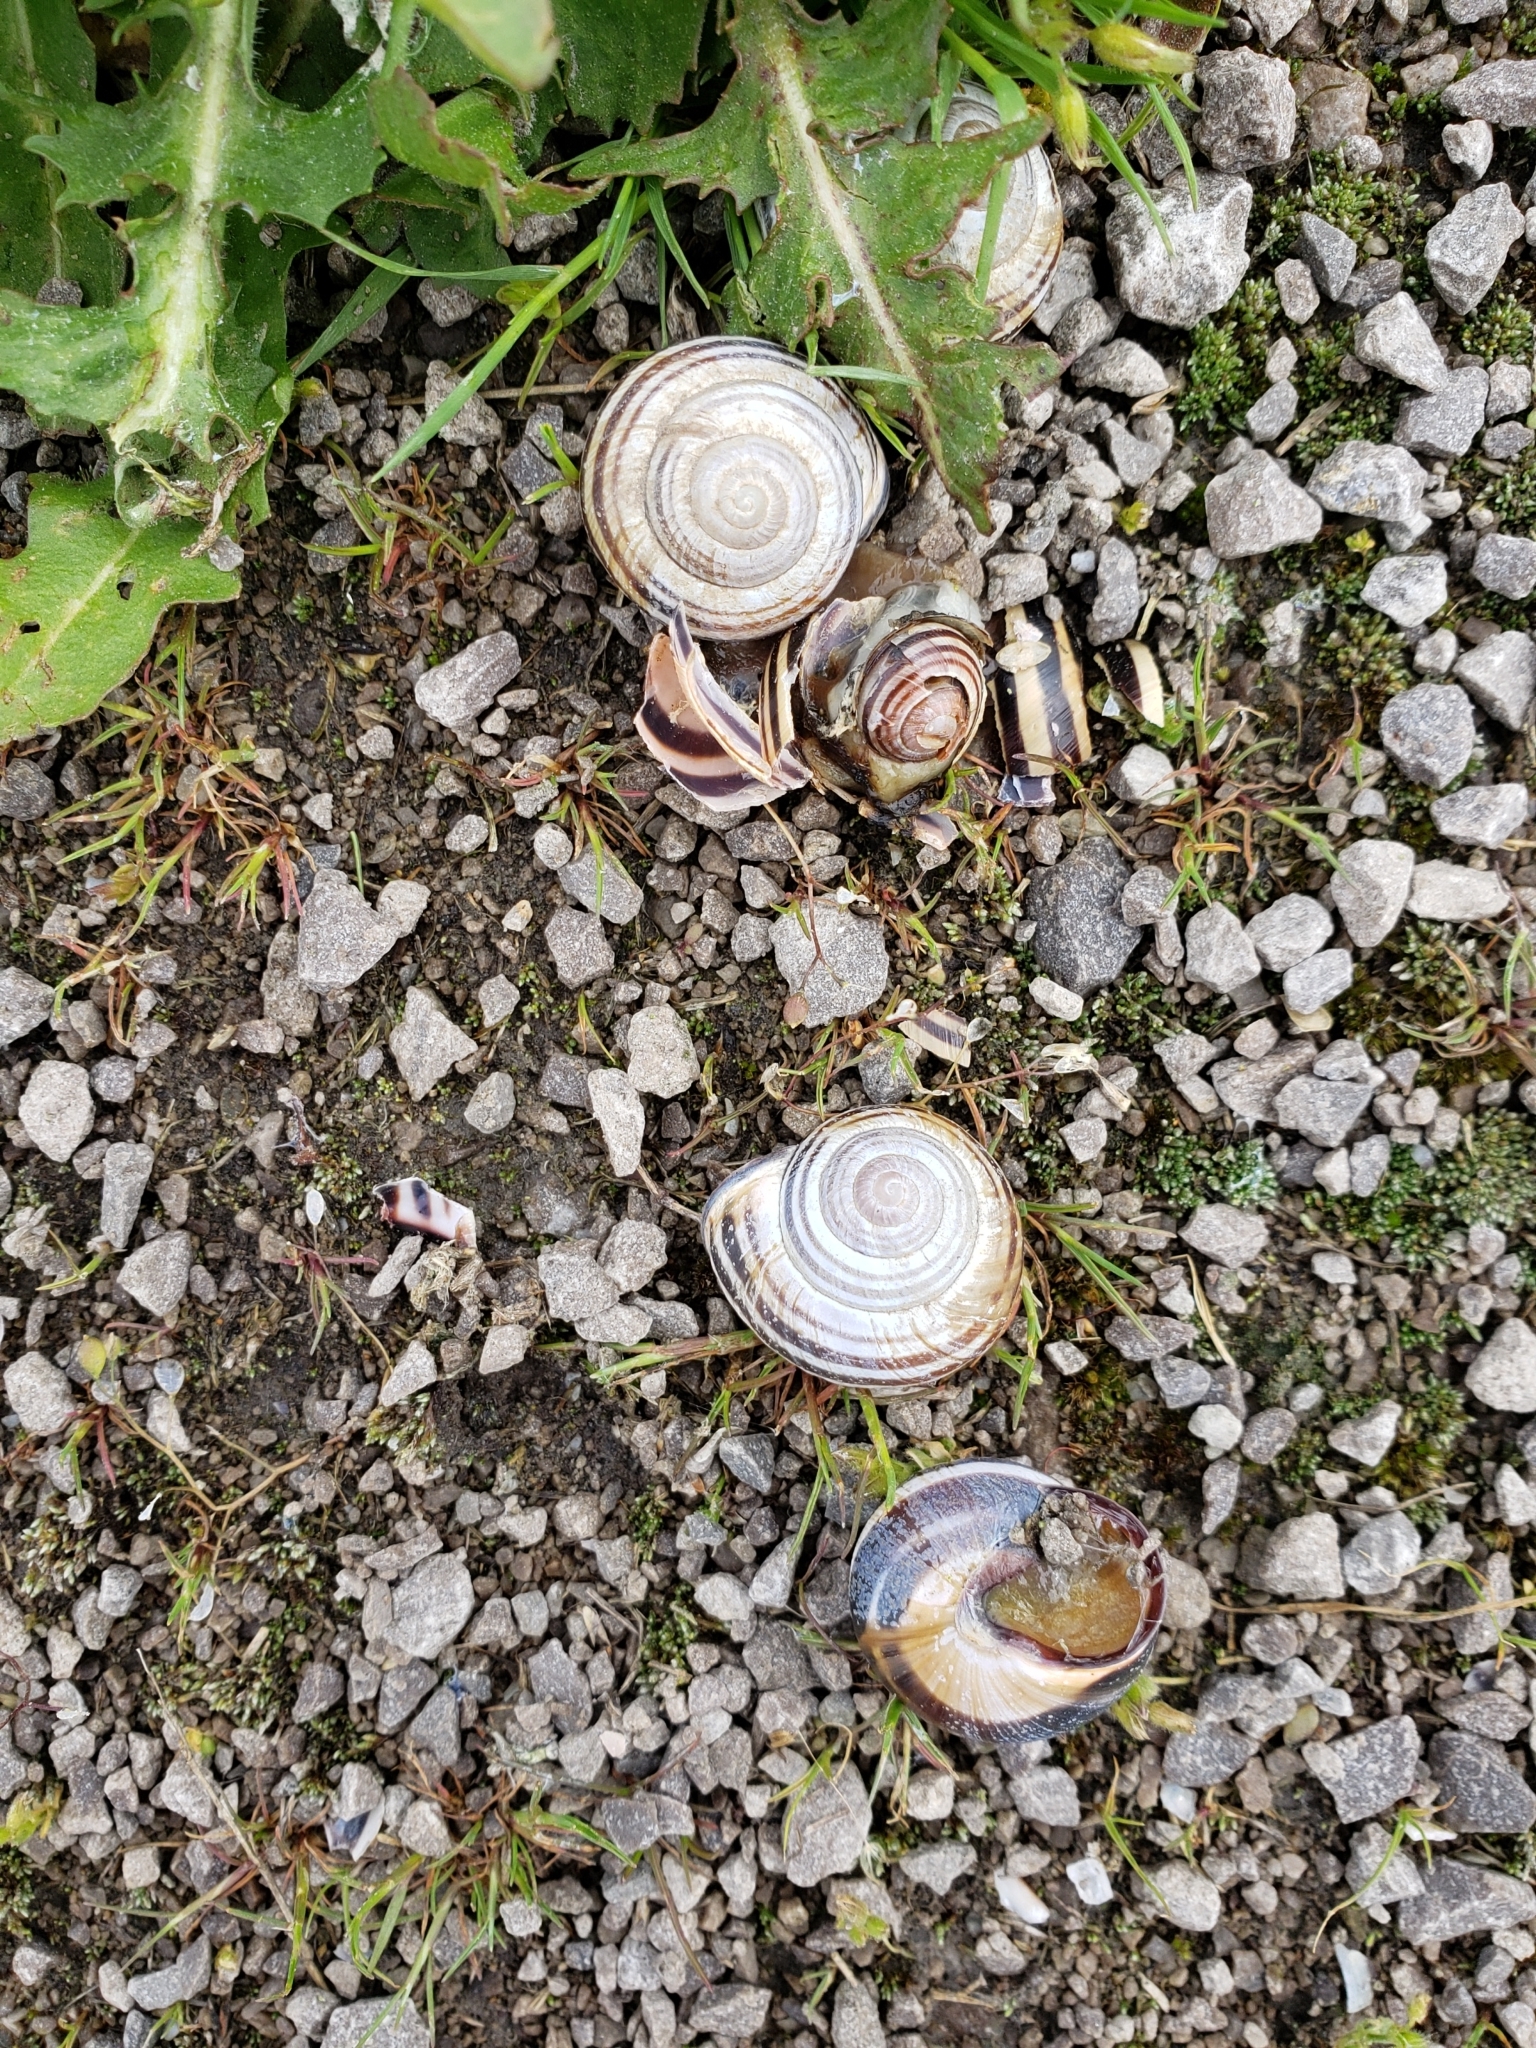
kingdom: Animalia
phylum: Mollusca
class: Gastropoda
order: Stylommatophora
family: Helicidae
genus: Cepaea
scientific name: Cepaea nemoralis
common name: Grovesnail
